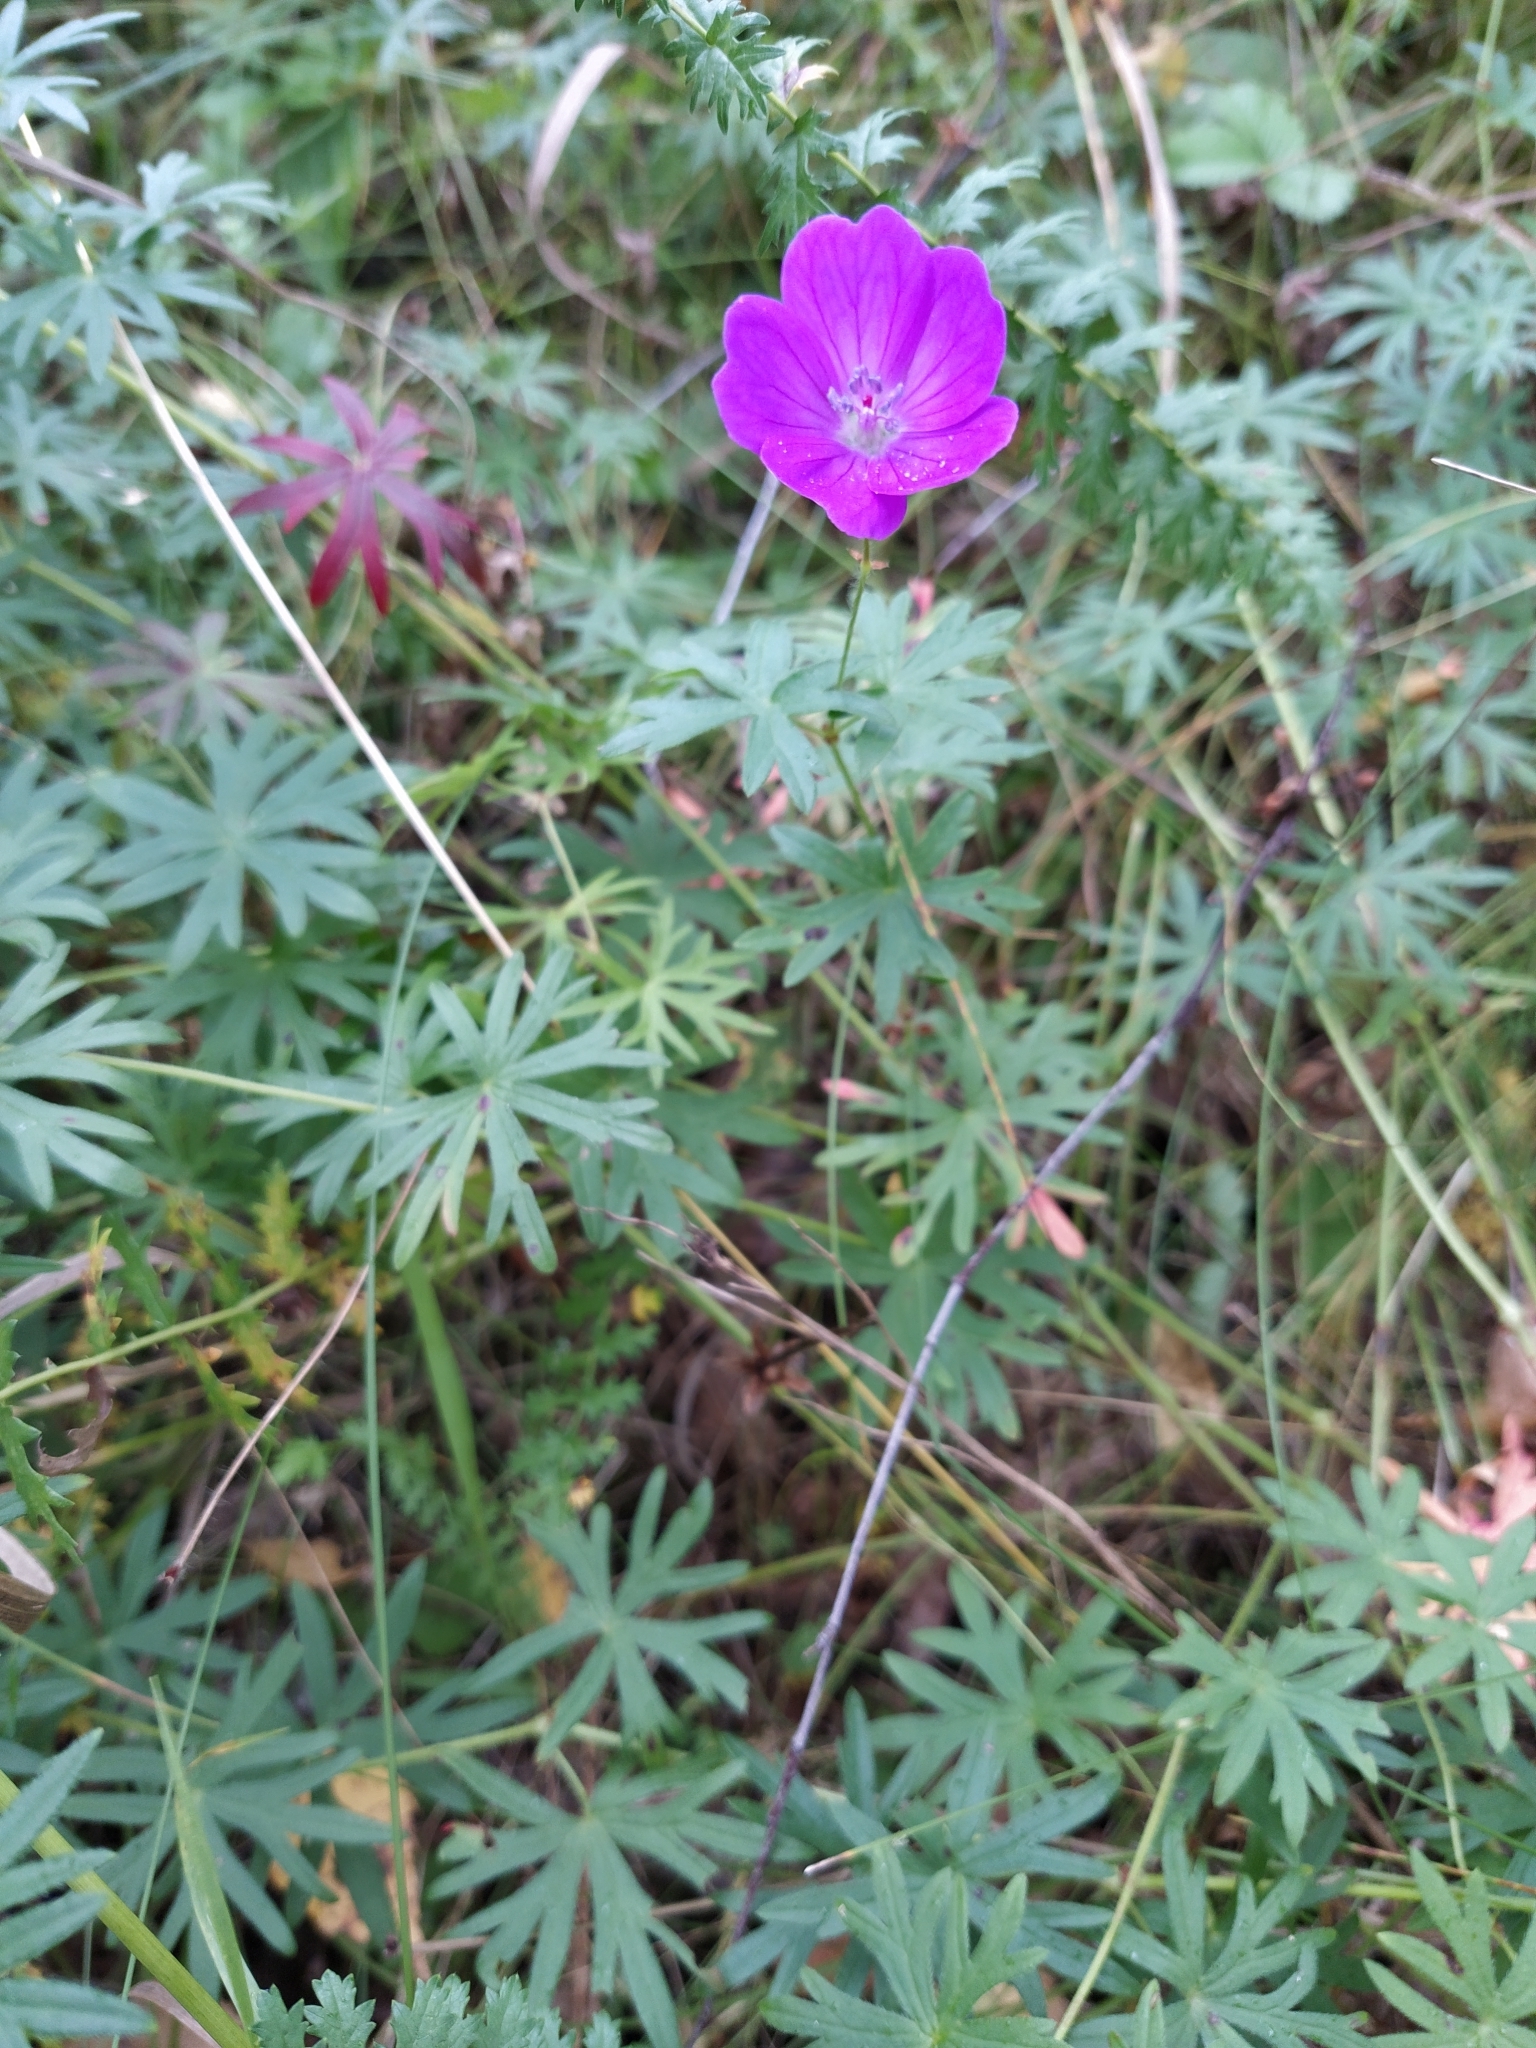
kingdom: Plantae
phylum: Tracheophyta
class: Magnoliopsida
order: Geraniales
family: Geraniaceae
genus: Geranium
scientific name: Geranium sanguineum
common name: Bloody crane's-bill
